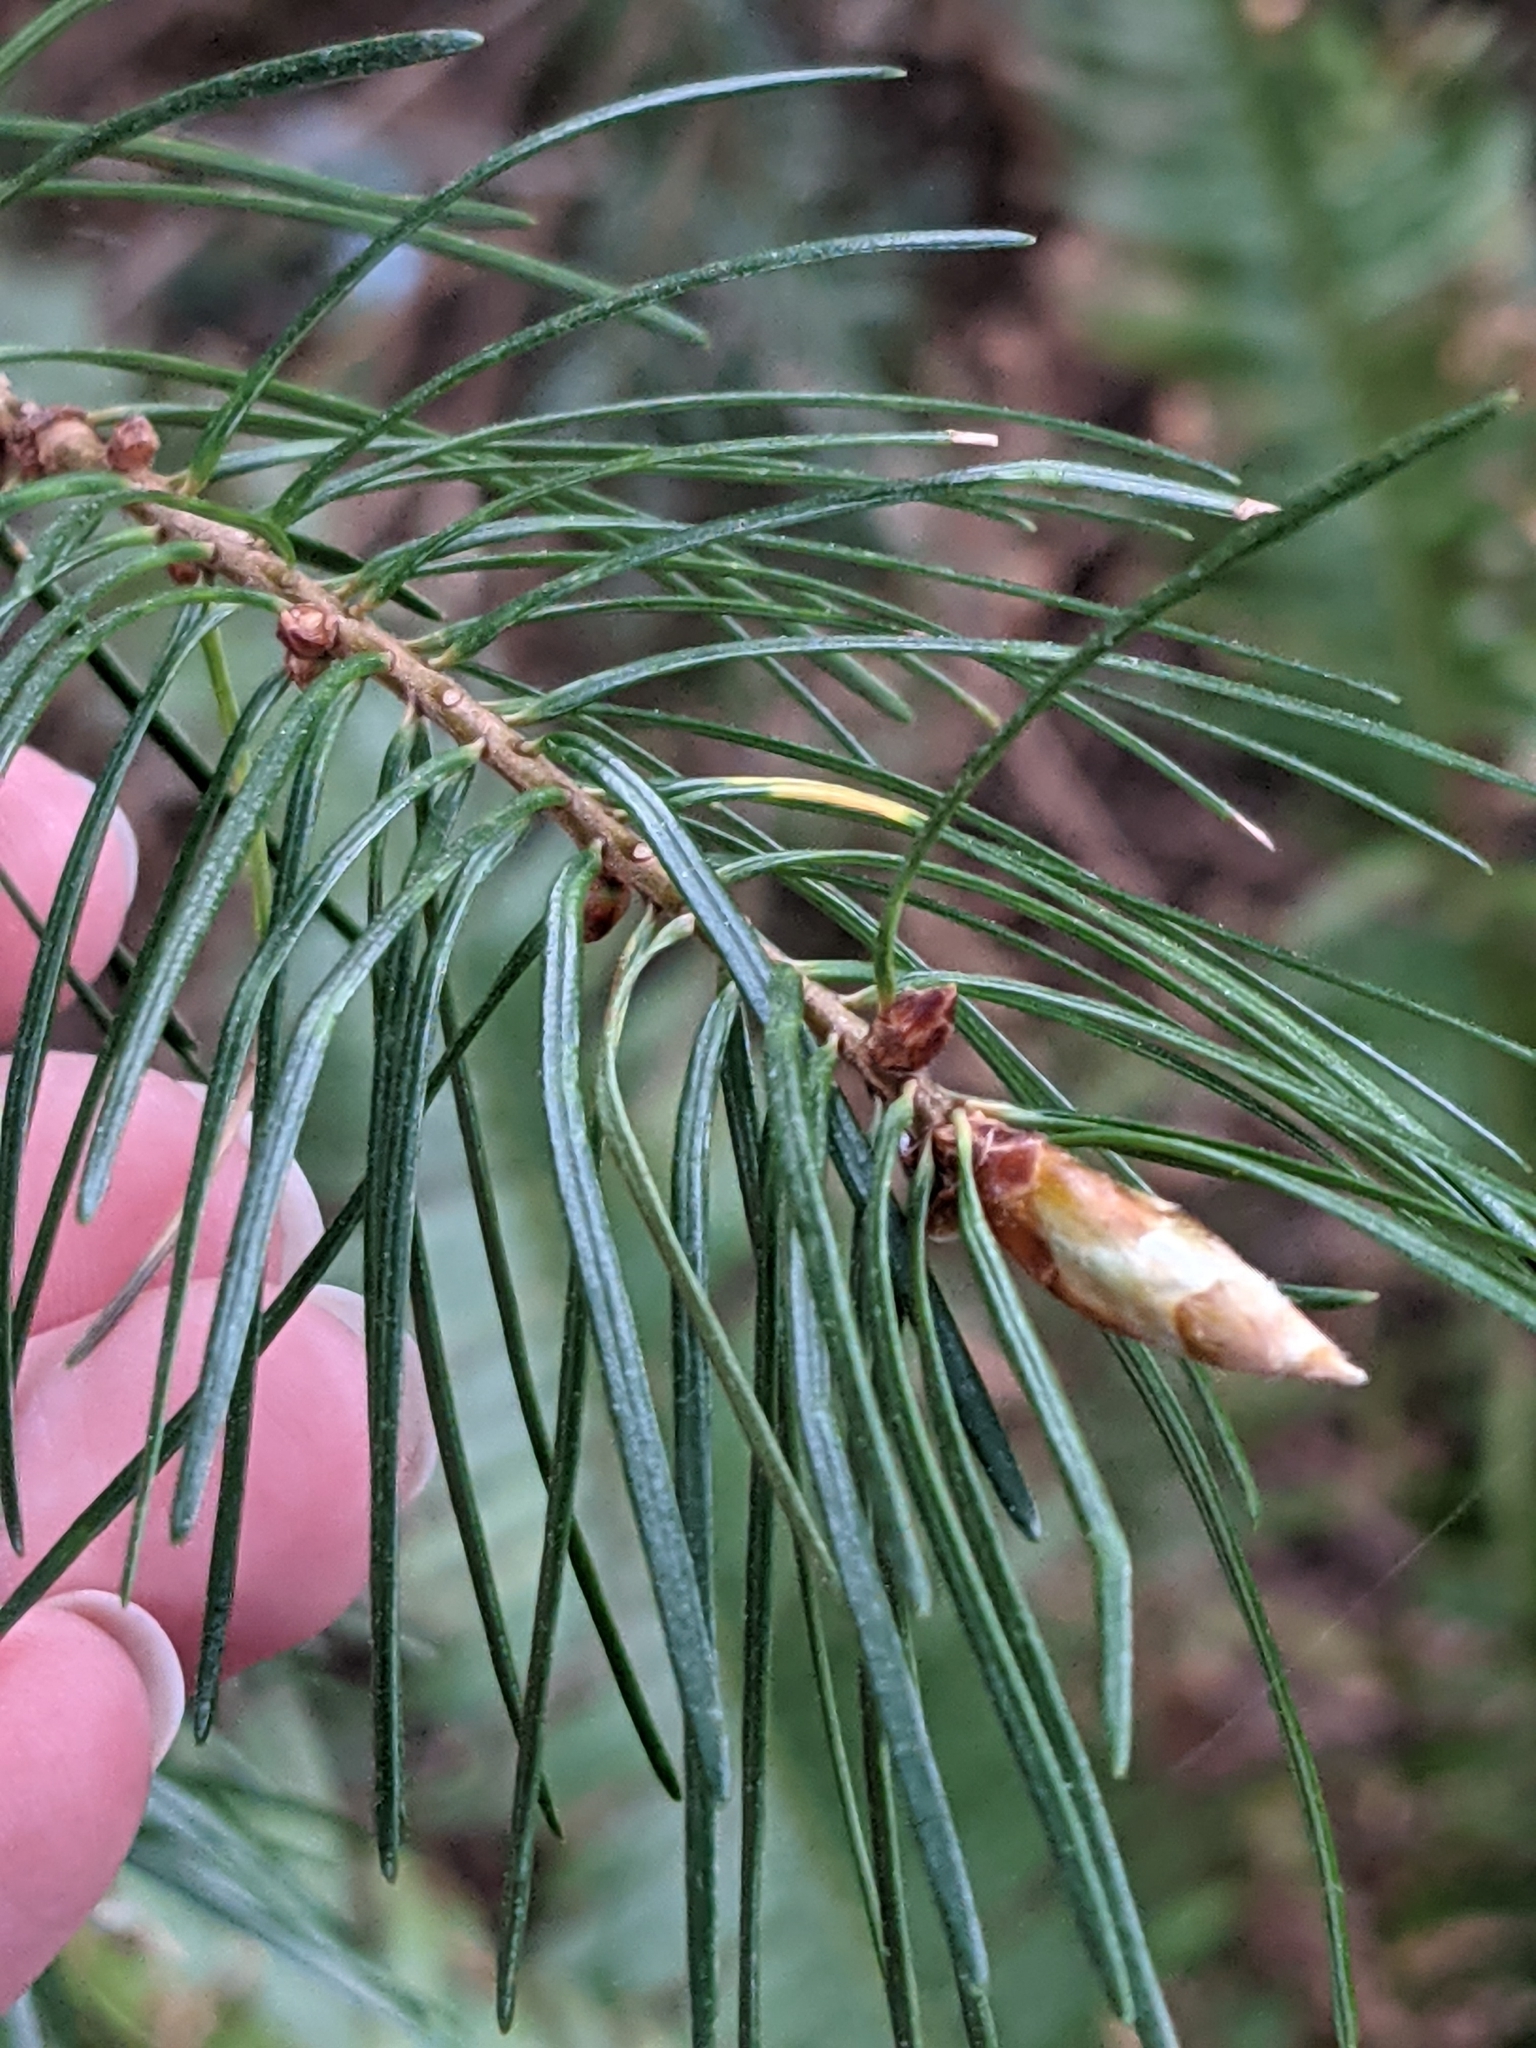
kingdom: Plantae
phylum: Tracheophyta
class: Pinopsida
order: Pinales
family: Pinaceae
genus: Pseudotsuga
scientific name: Pseudotsuga menziesii
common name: Douglas fir
